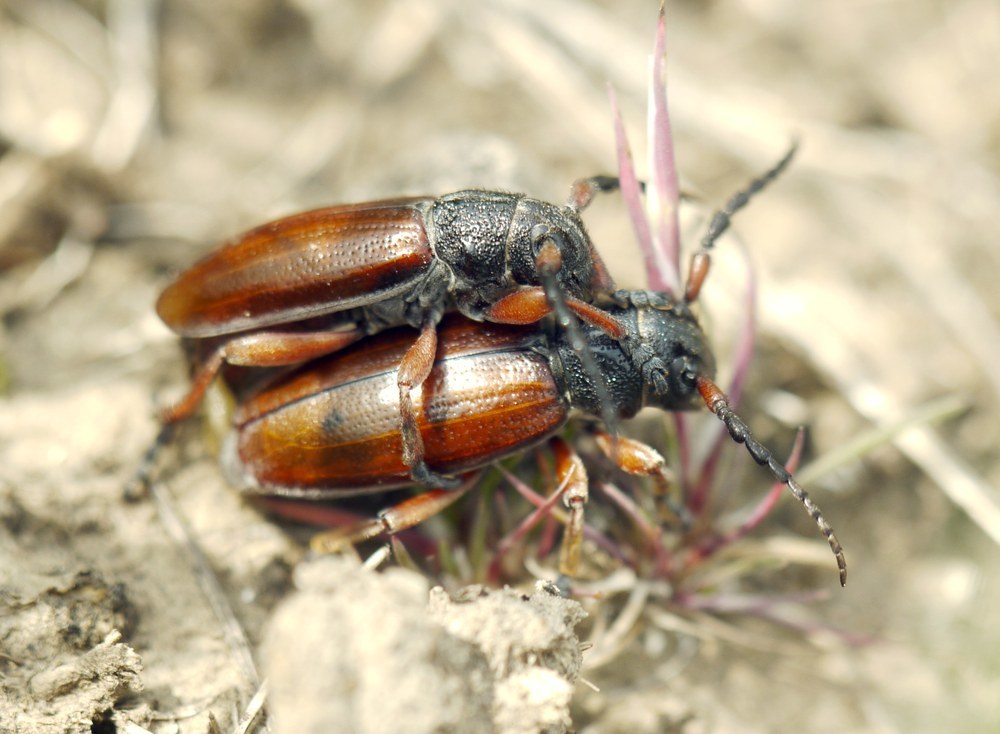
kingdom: Animalia
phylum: Arthropoda
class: Insecta
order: Coleoptera
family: Cerambycidae
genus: Dorcadion
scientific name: Dorcadion fulvum
